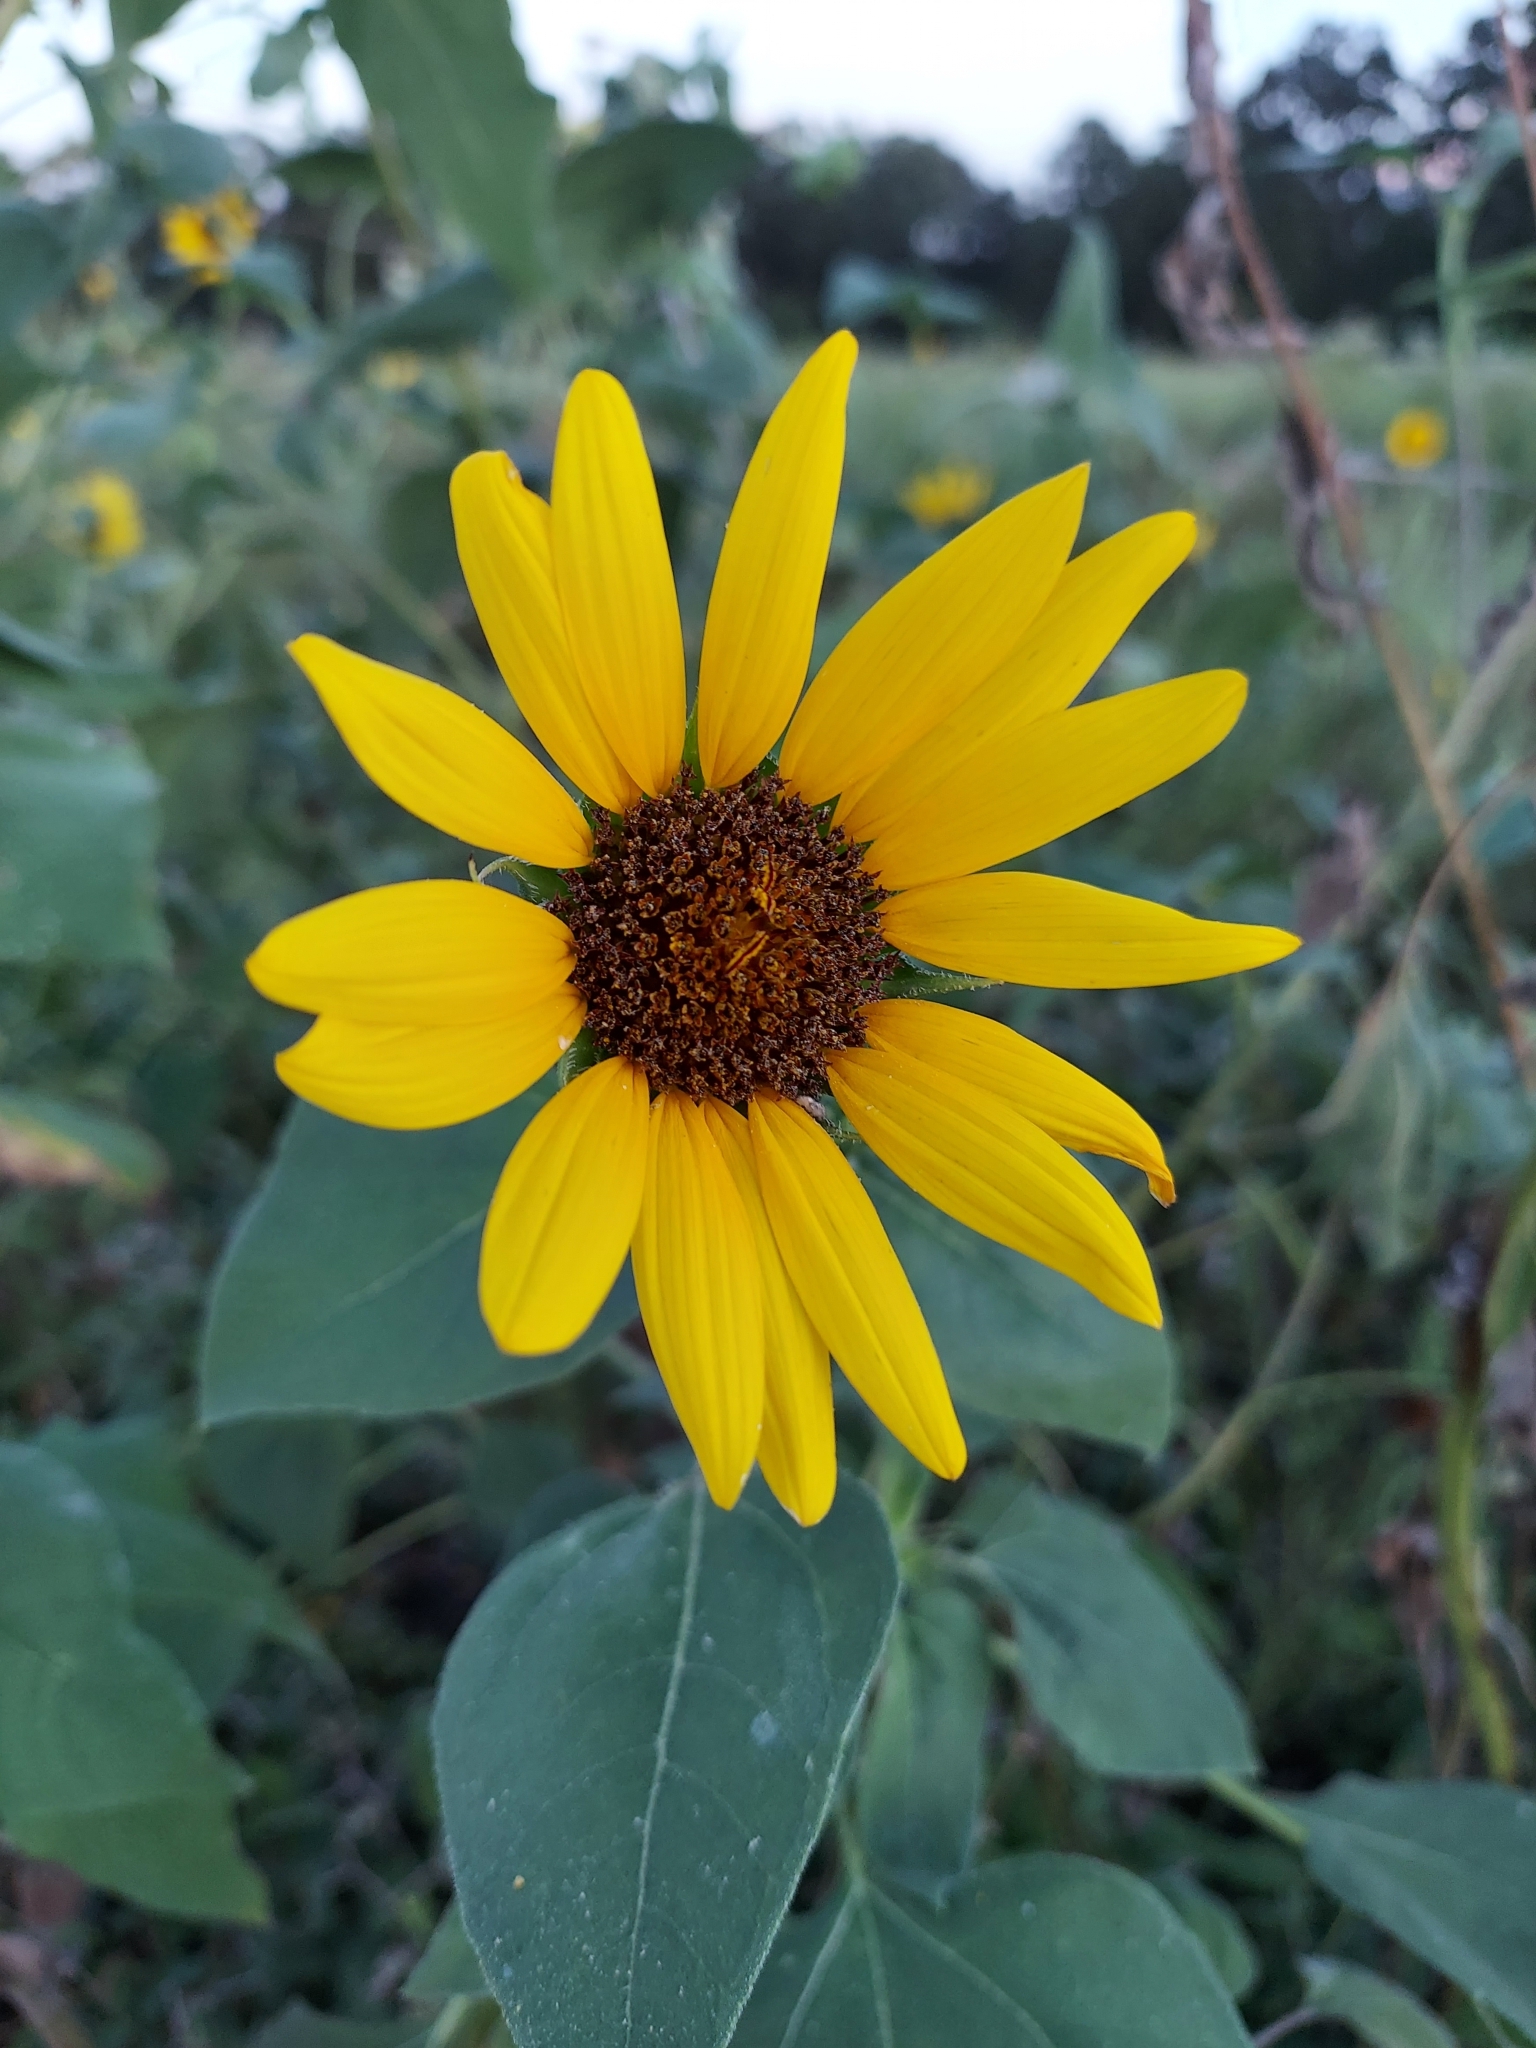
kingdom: Plantae
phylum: Tracheophyta
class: Magnoliopsida
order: Asterales
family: Asteraceae
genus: Helianthus
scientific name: Helianthus annuus
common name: Sunflower
